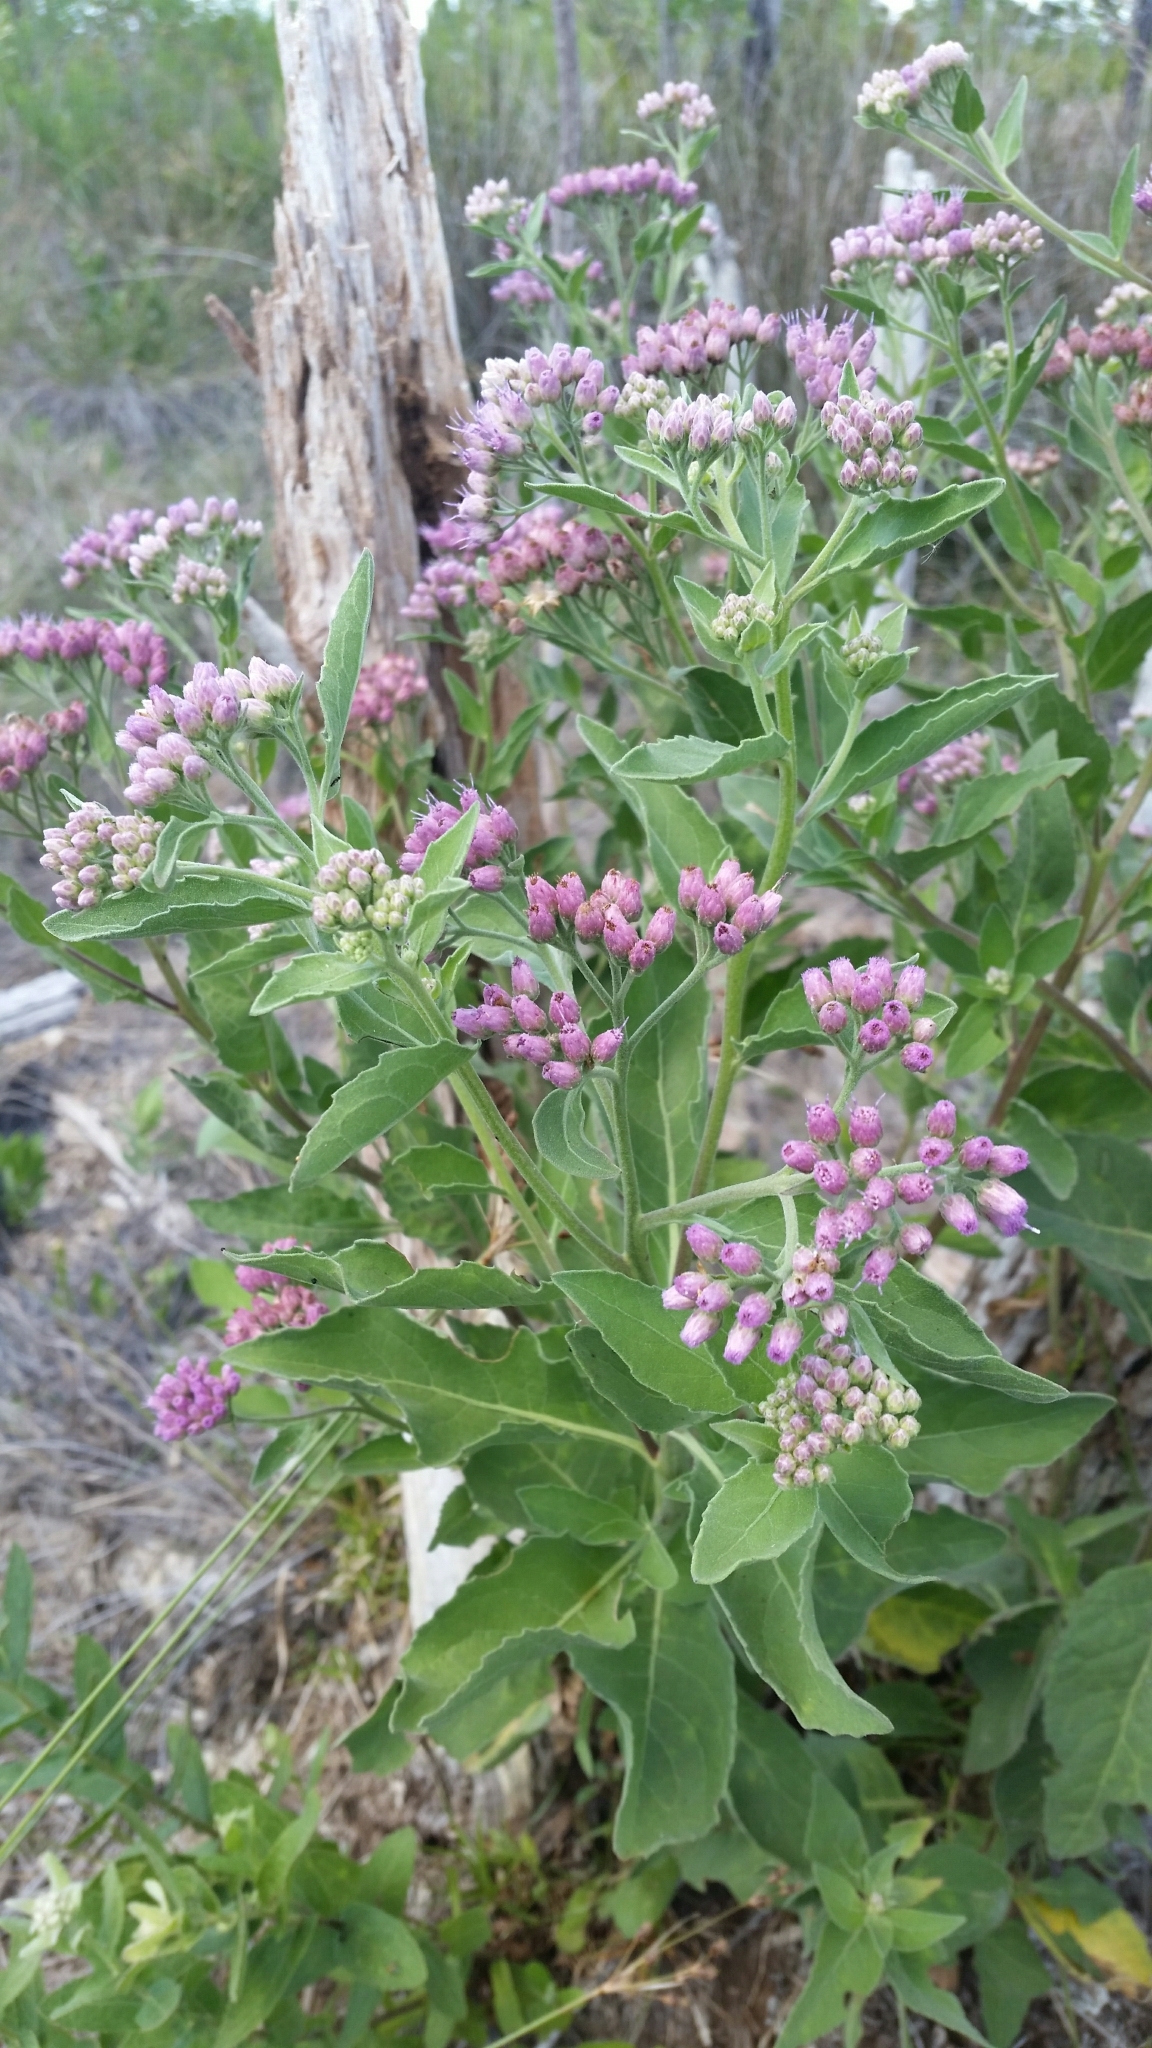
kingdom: Plantae
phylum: Tracheophyta
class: Magnoliopsida
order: Asterales
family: Asteraceae
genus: Pluchea
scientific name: Pluchea odorata
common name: Saltmarsh fleabane
